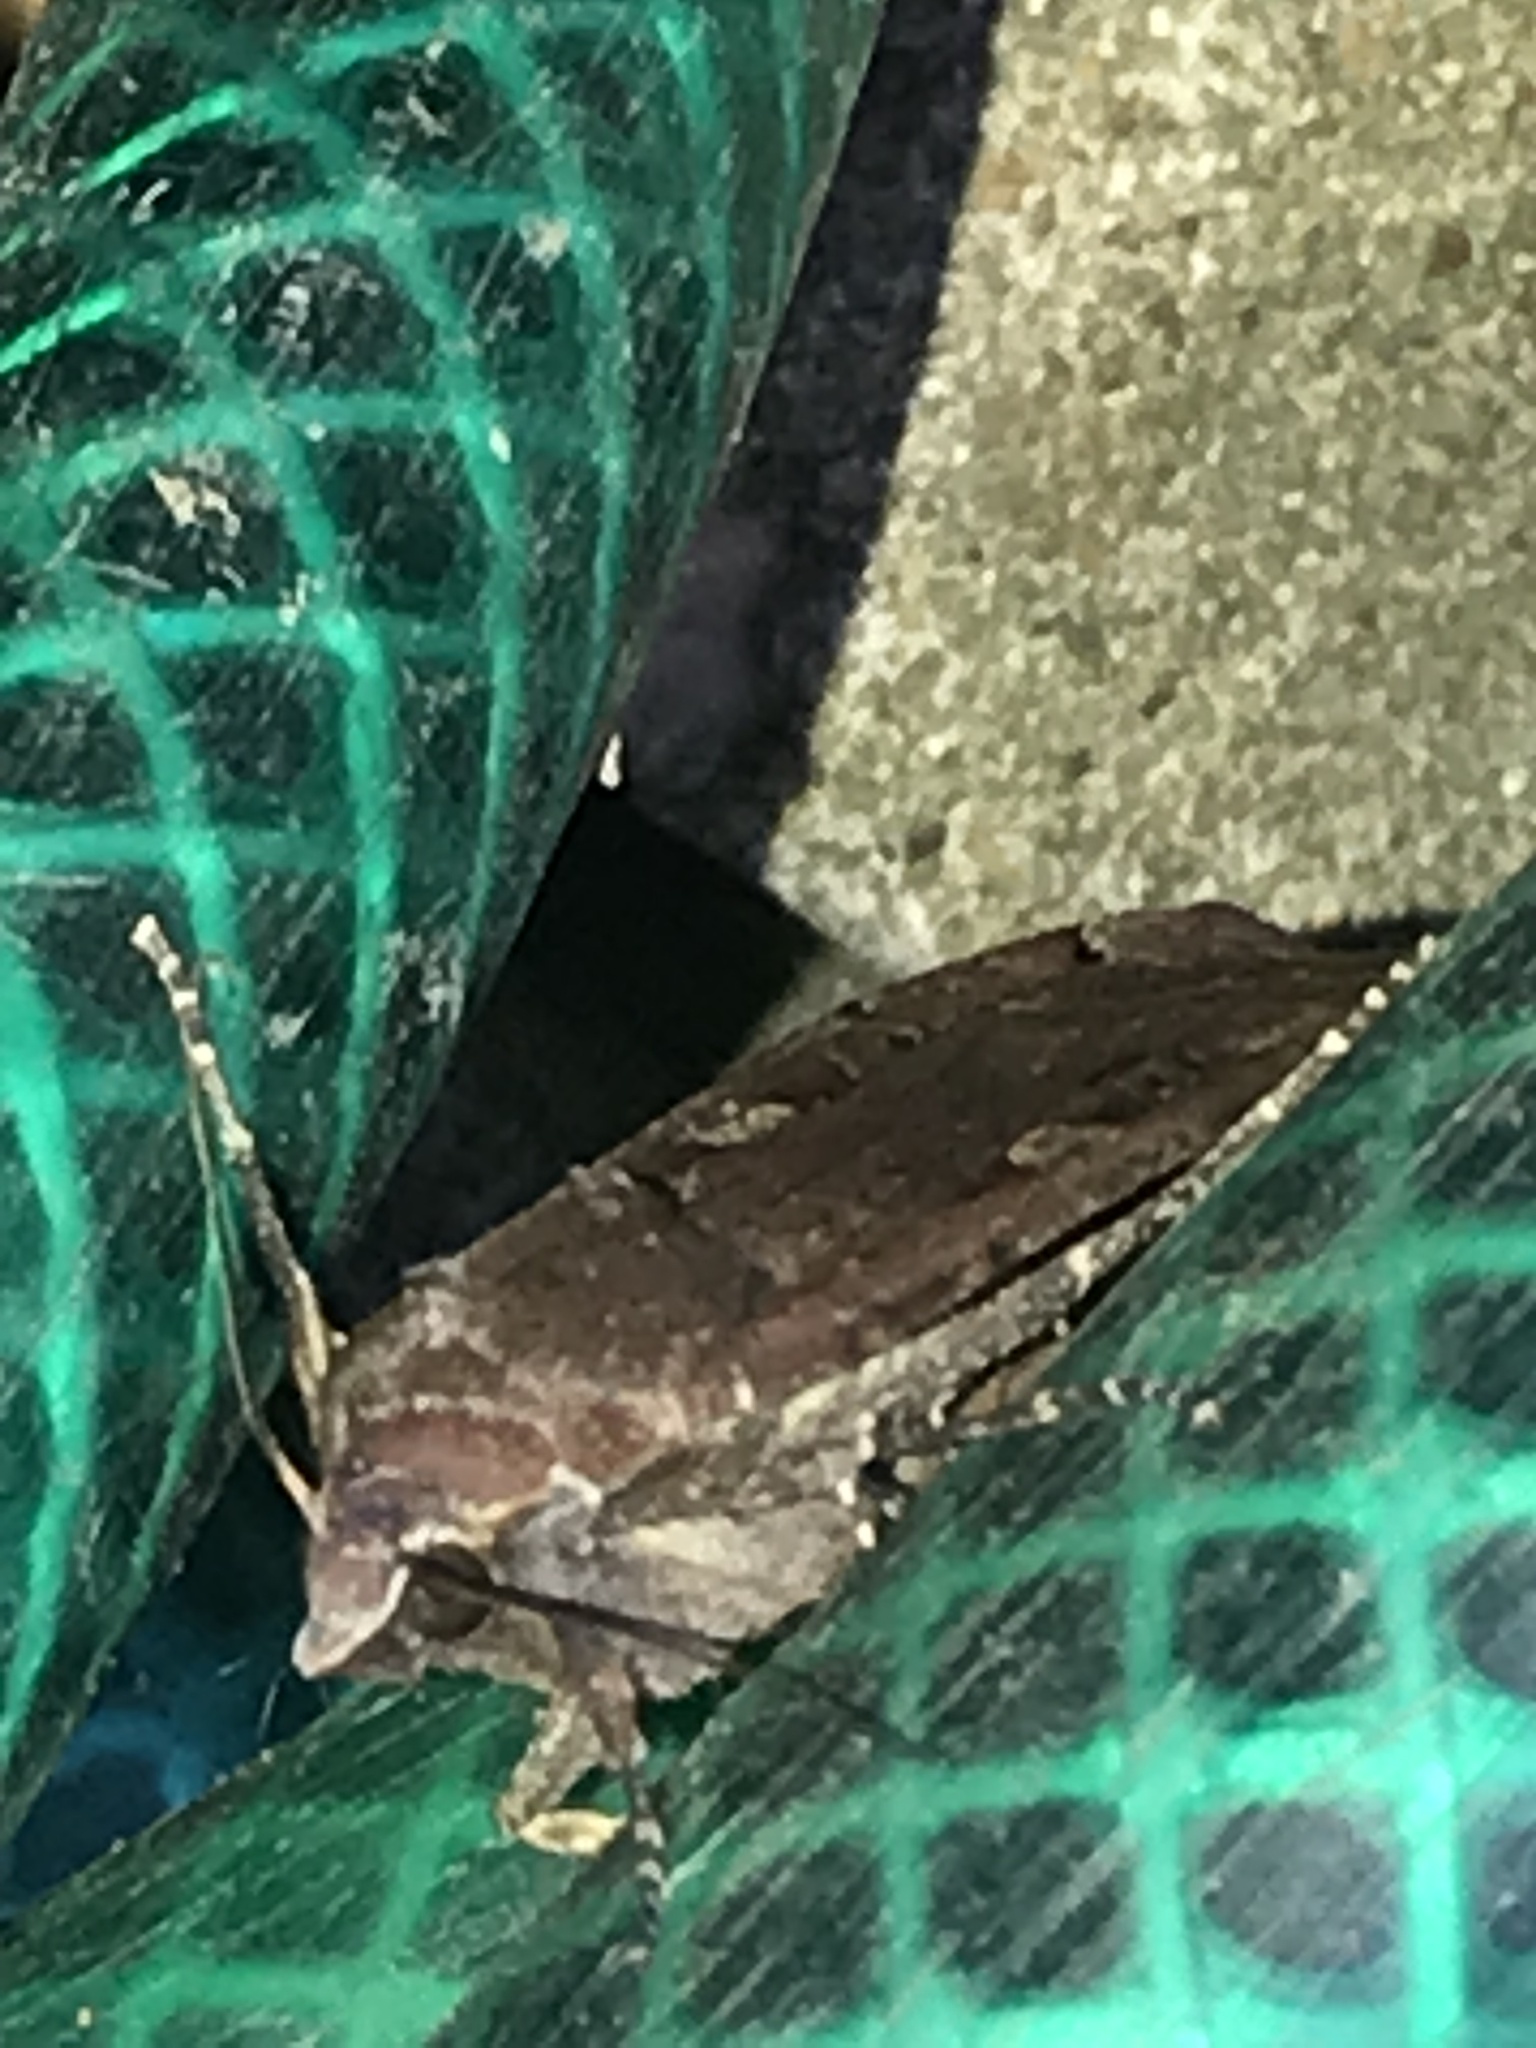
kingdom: Animalia
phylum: Arthropoda
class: Insecta
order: Lepidoptera
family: Noctuidae
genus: Noctua
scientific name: Noctua pronuba
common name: Large yellow underwing
